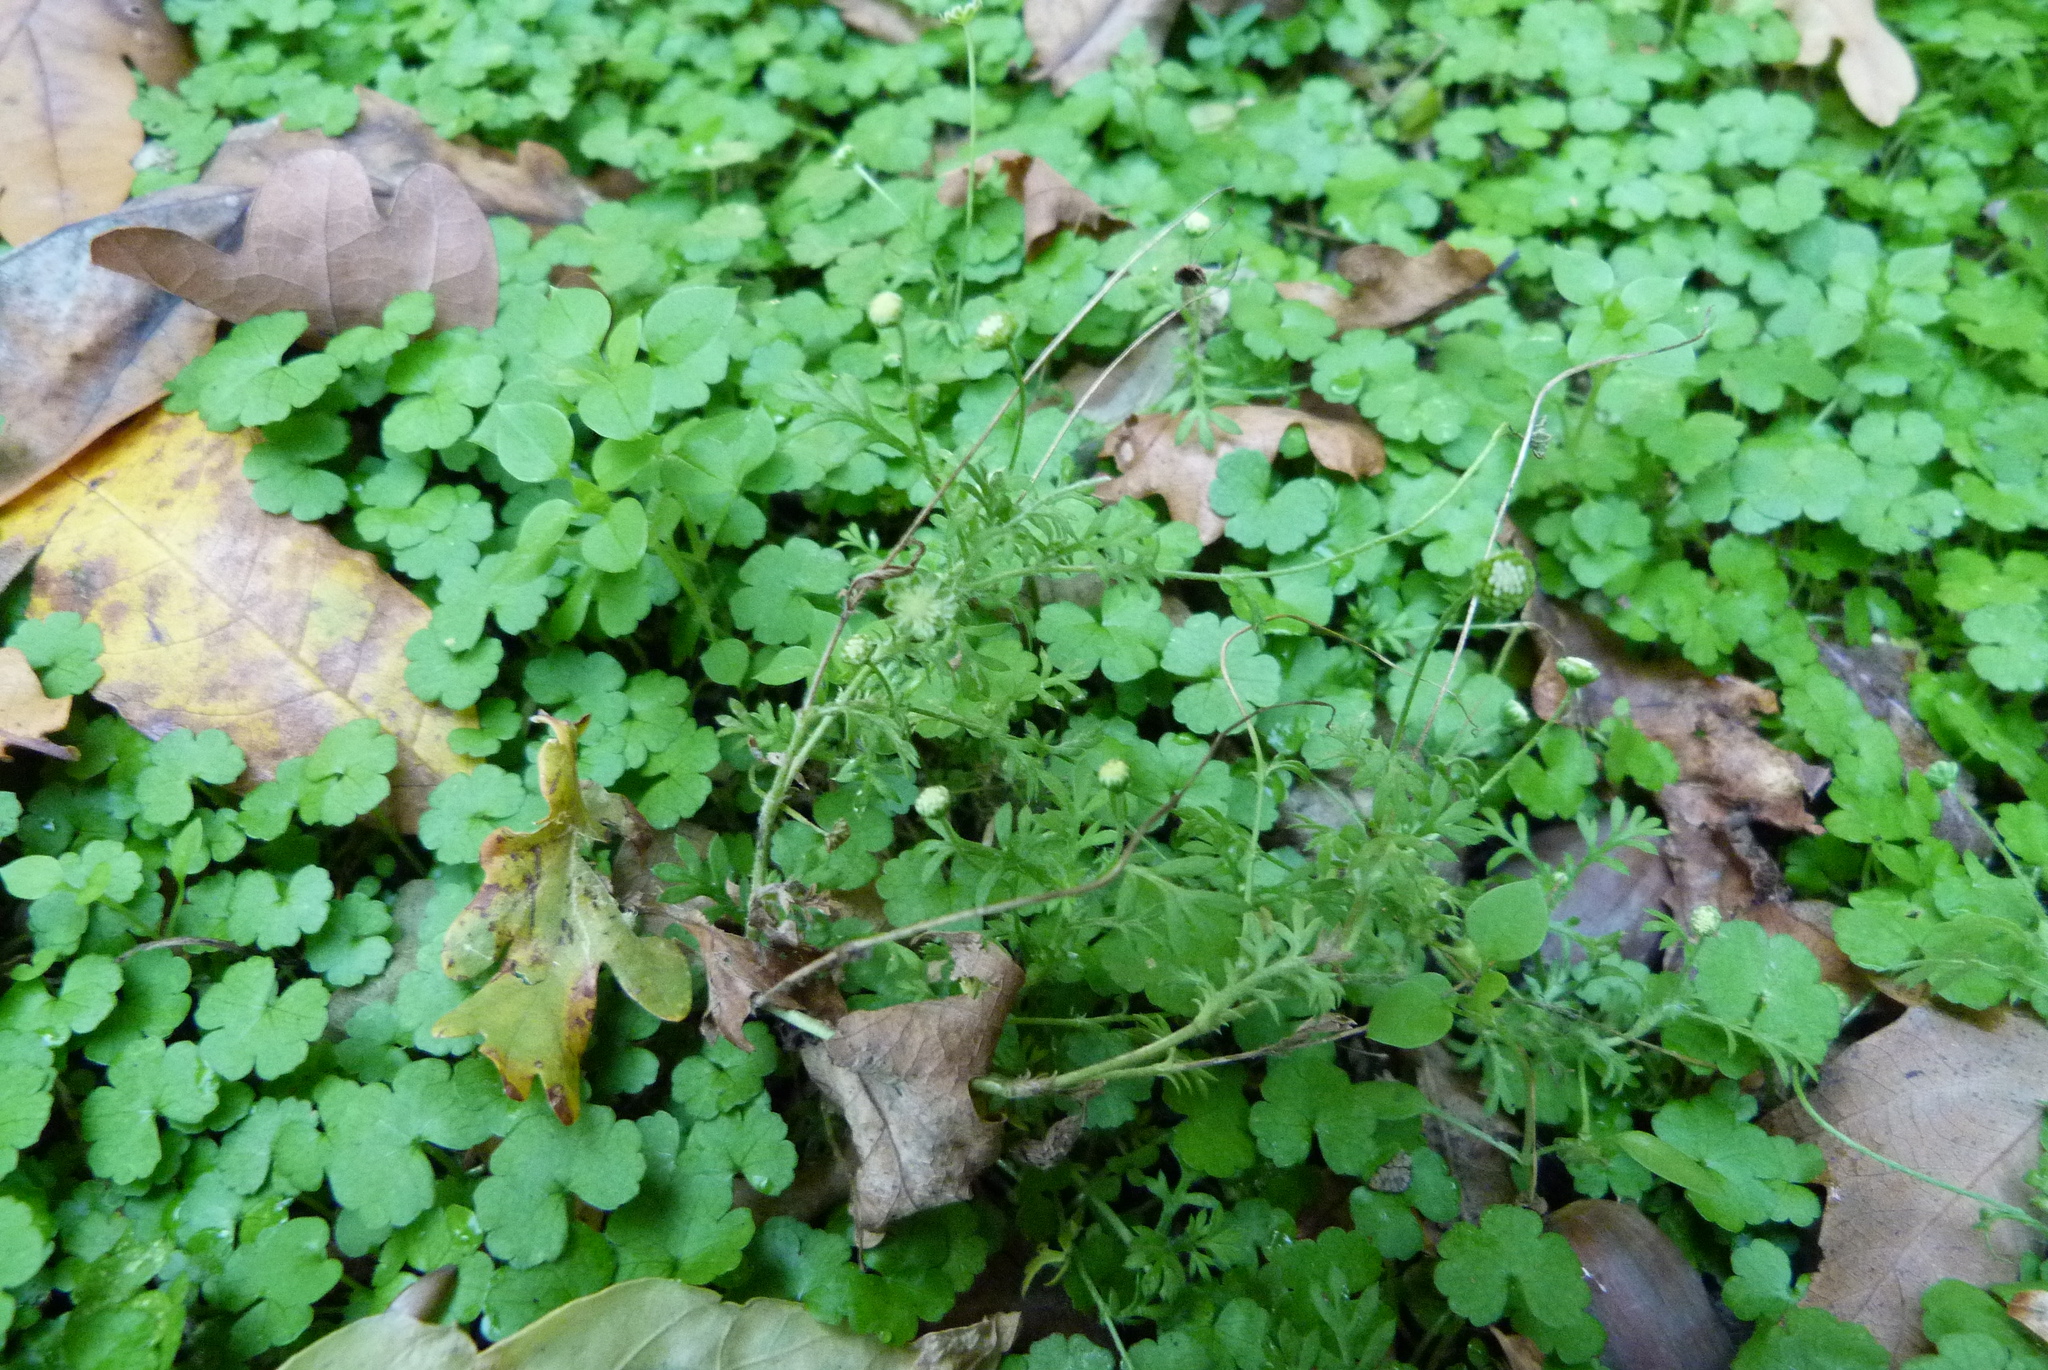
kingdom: Plantae
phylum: Tracheophyta
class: Magnoliopsida
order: Asterales
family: Asteraceae
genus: Cotula
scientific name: Cotula australis
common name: Australian waterbuttons
